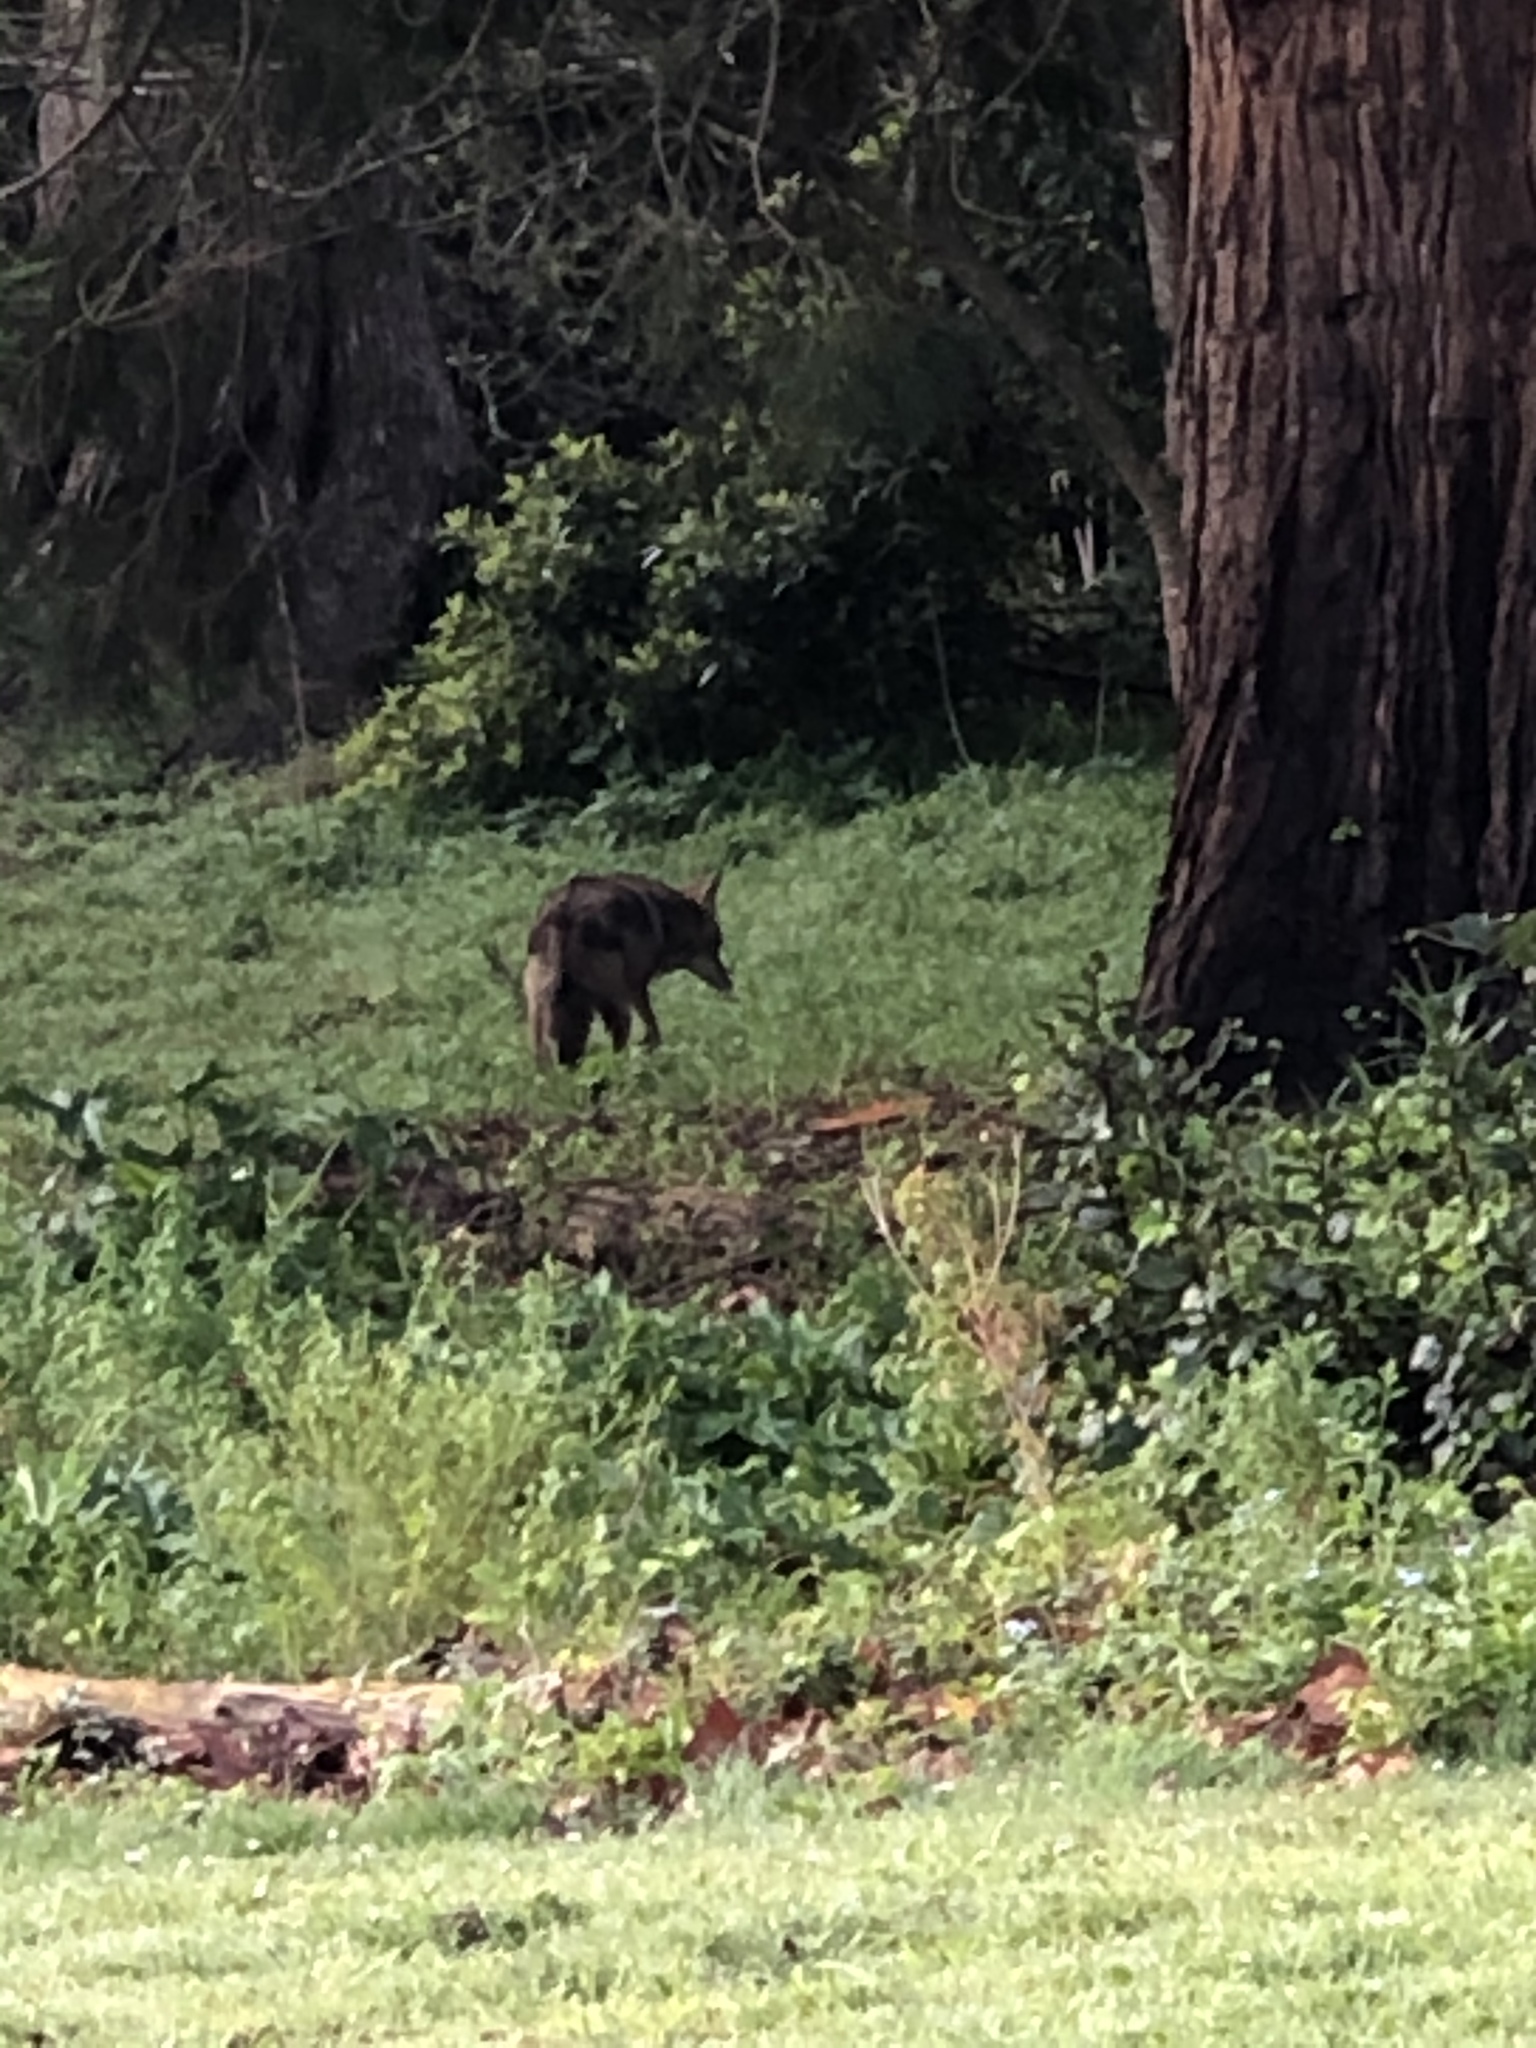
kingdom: Animalia
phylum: Chordata
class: Mammalia
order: Carnivora
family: Canidae
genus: Canis
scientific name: Canis latrans
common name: Coyote
